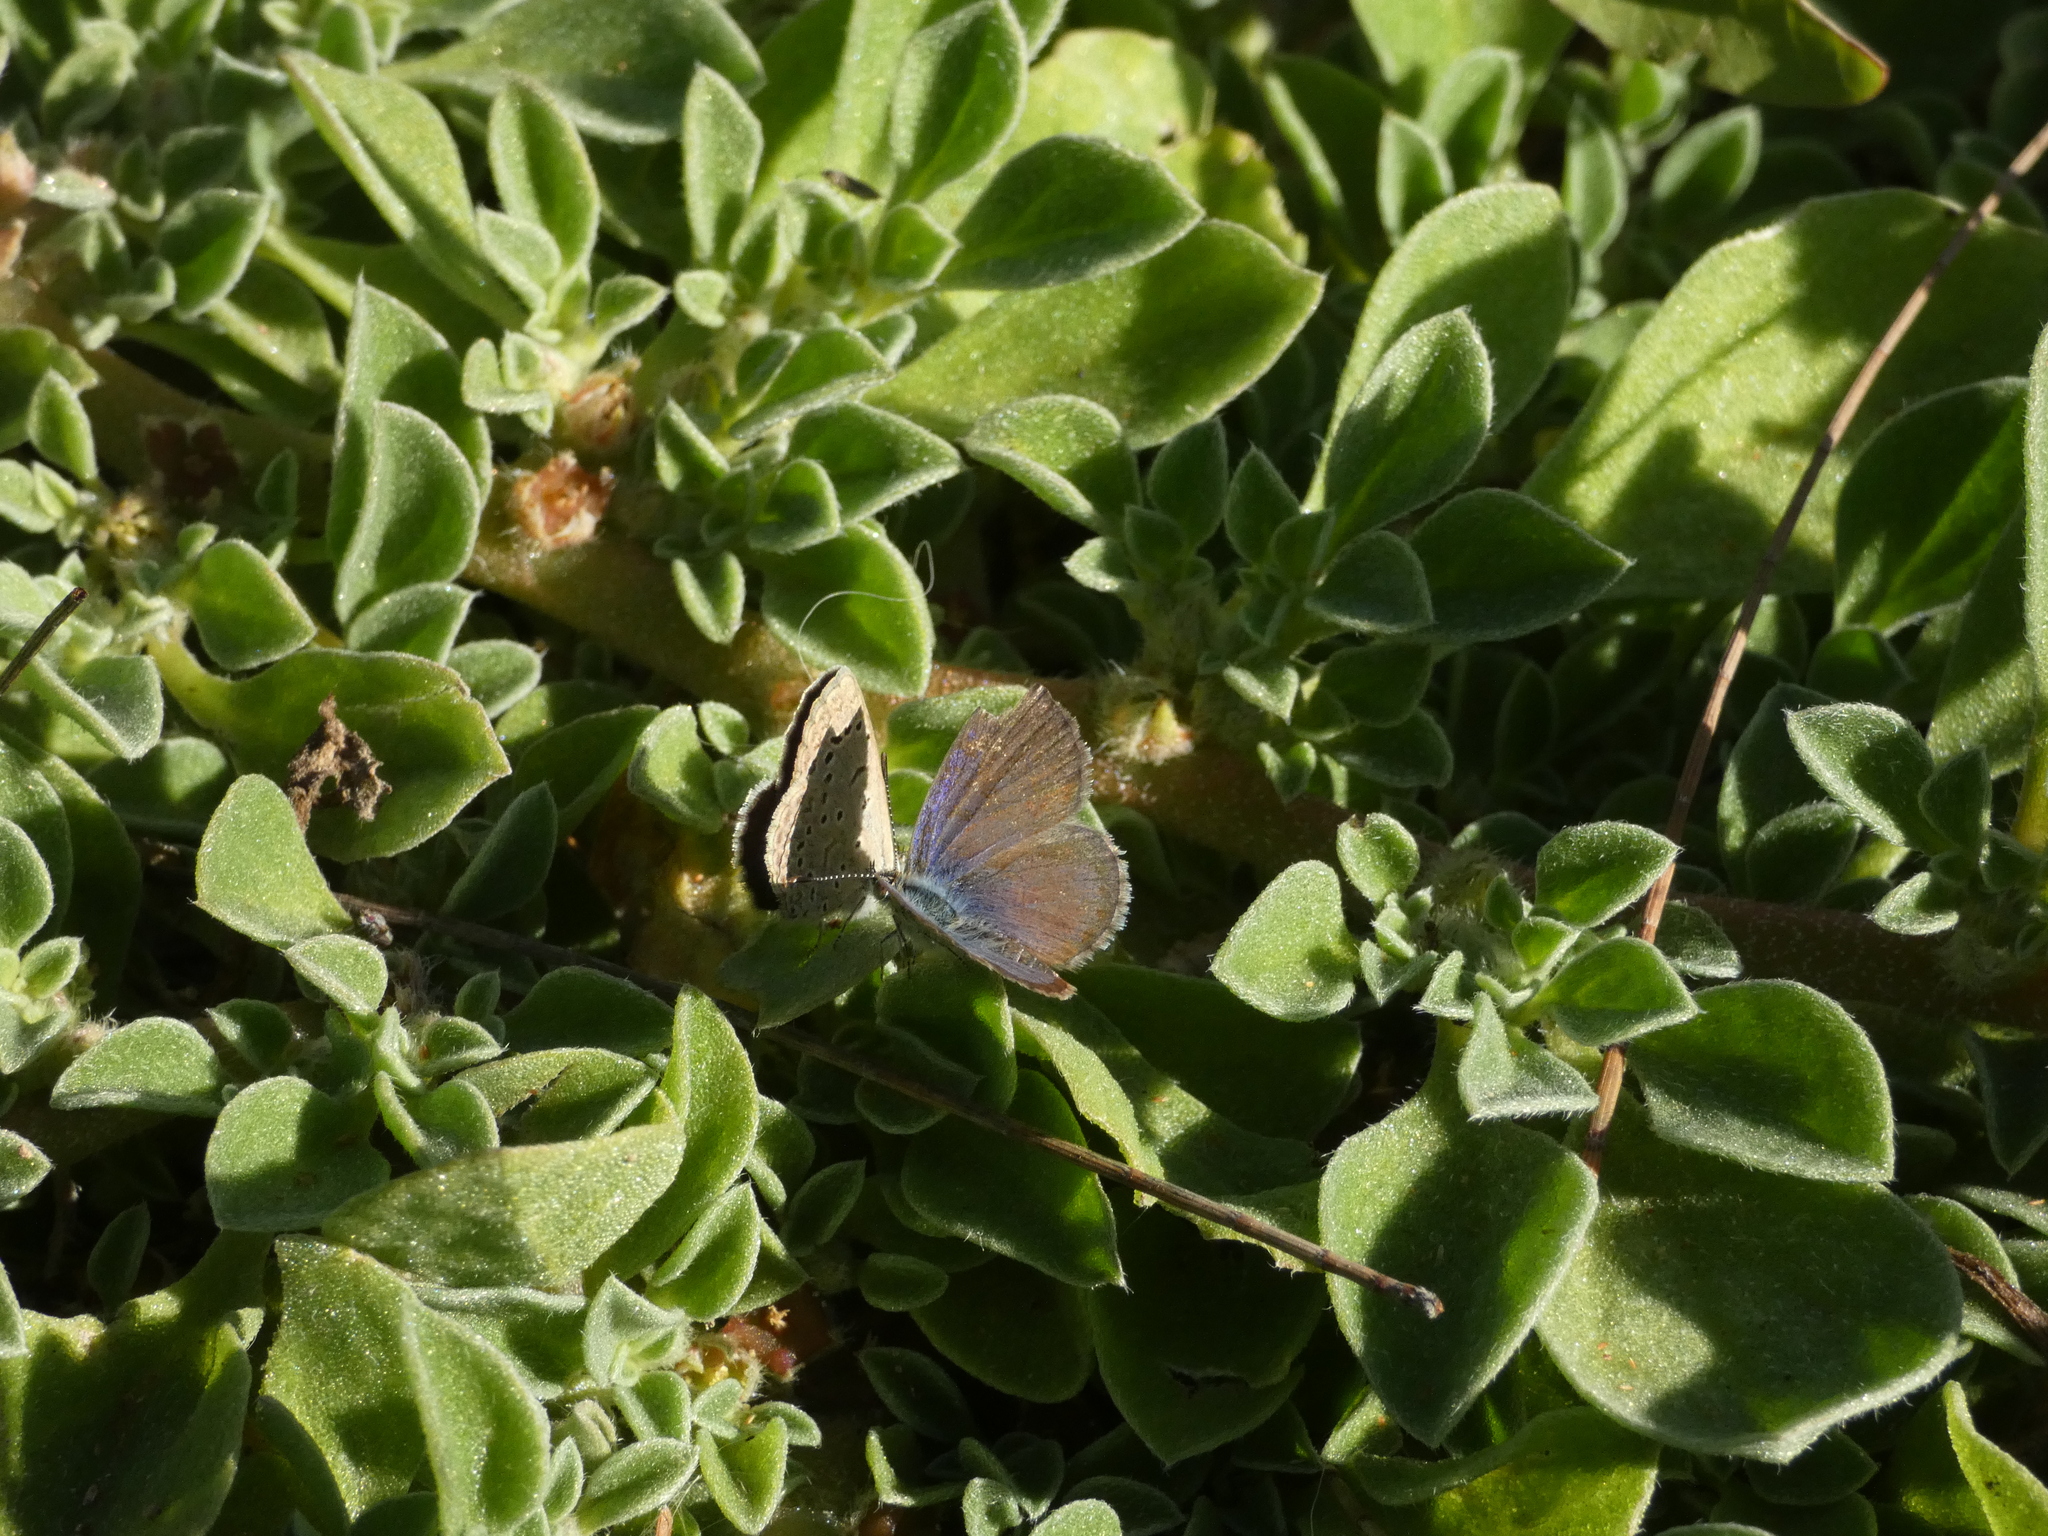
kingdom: Animalia
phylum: Arthropoda
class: Insecta
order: Lepidoptera
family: Lycaenidae
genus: Zizeeria
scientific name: Zizeeria knysna
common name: African grass blue
